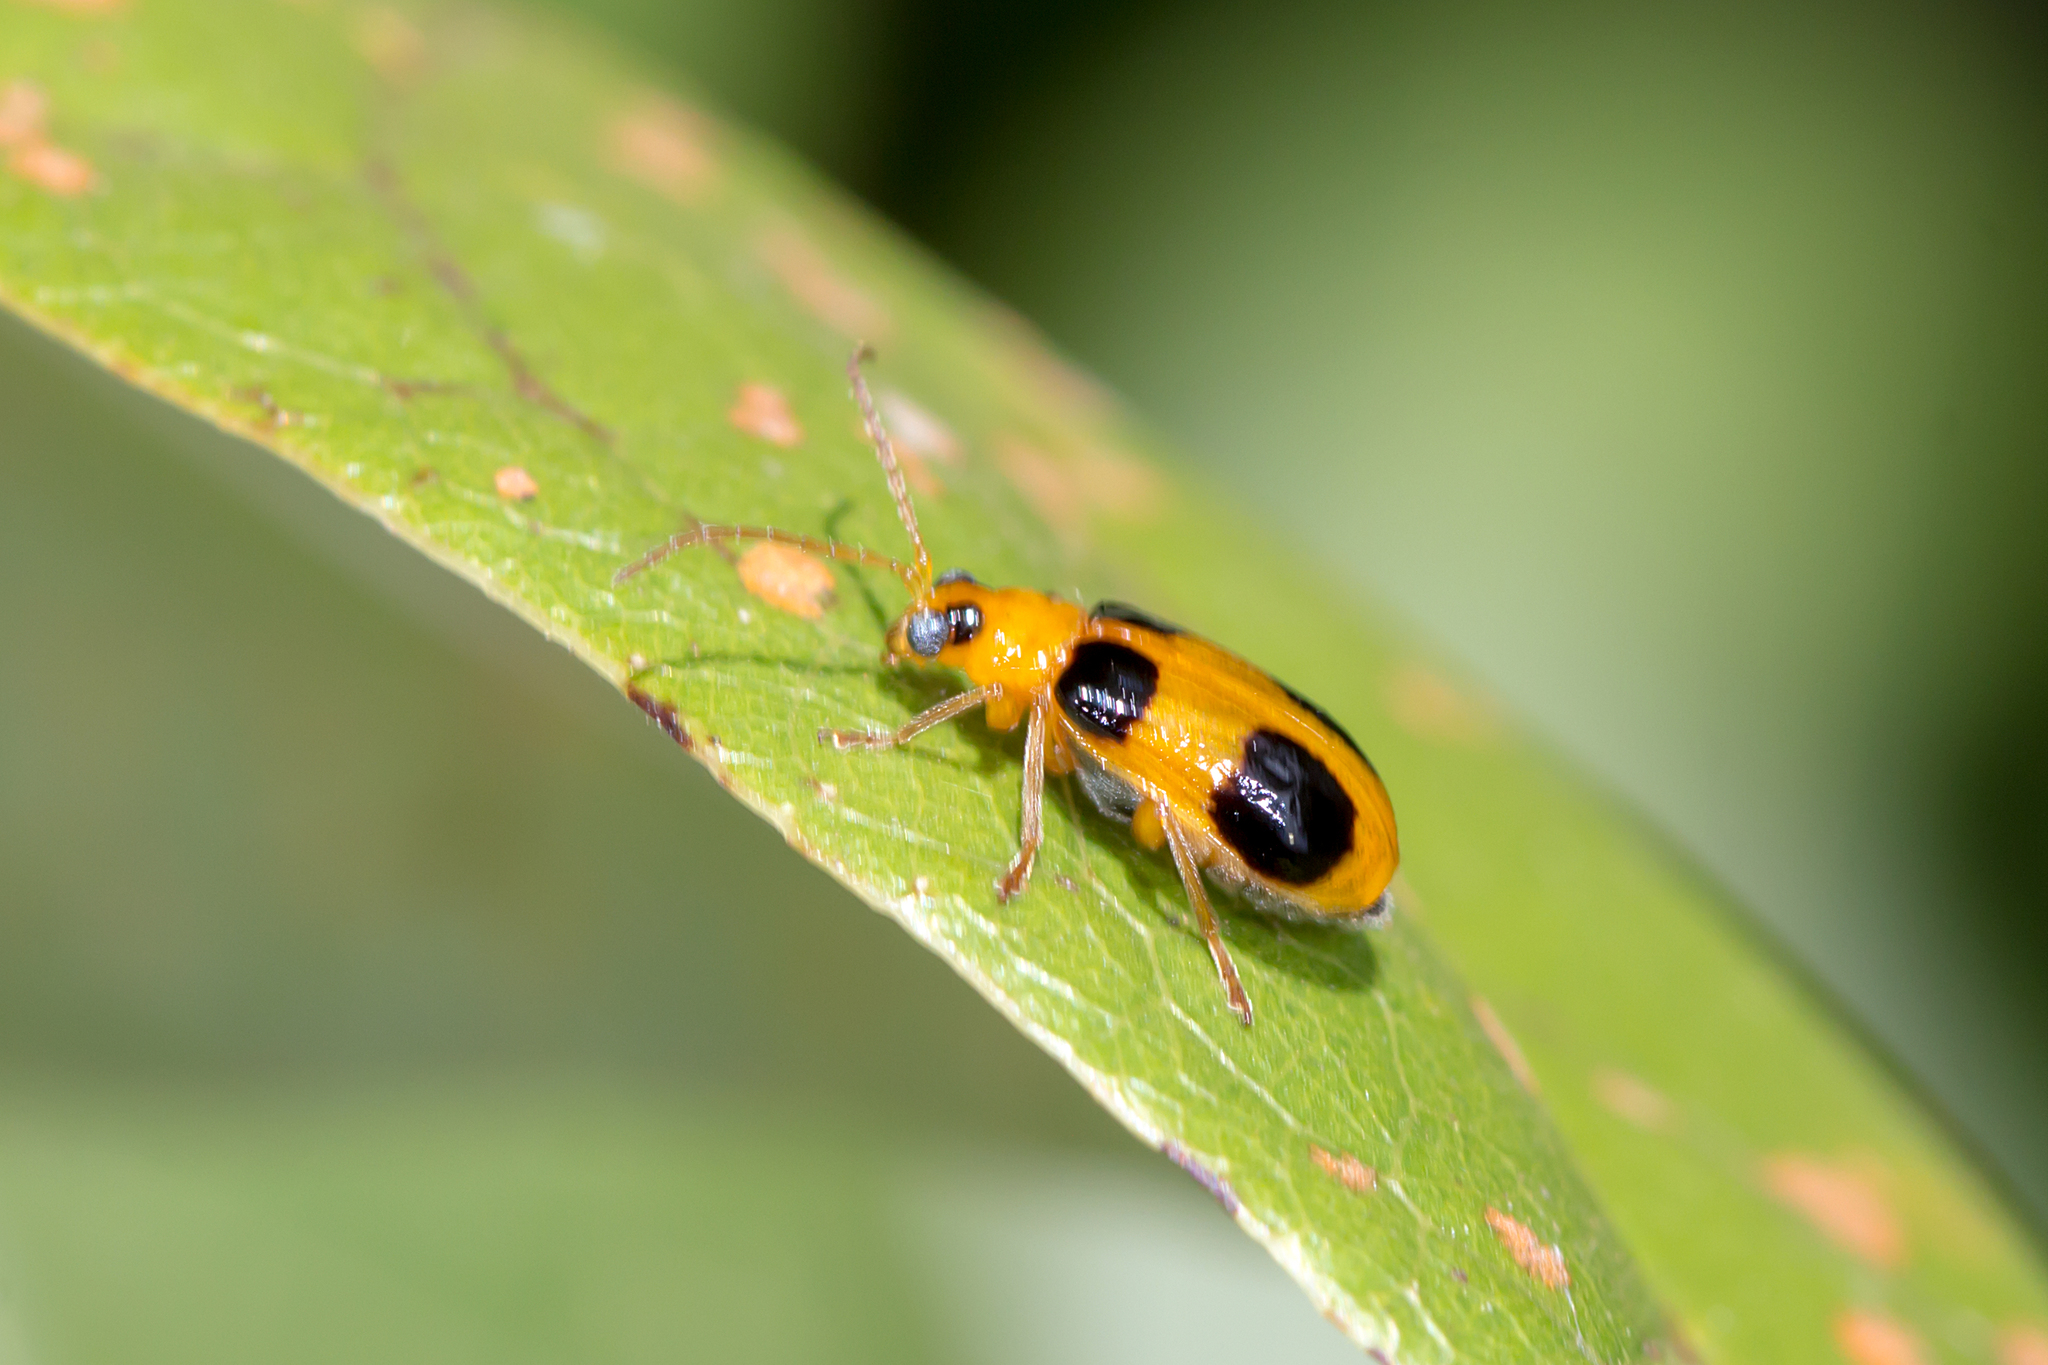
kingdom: Animalia
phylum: Arthropoda
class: Insecta
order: Coleoptera
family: Chrysomelidae
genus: Aulacophora
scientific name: Aulacophora quadrimaculata
